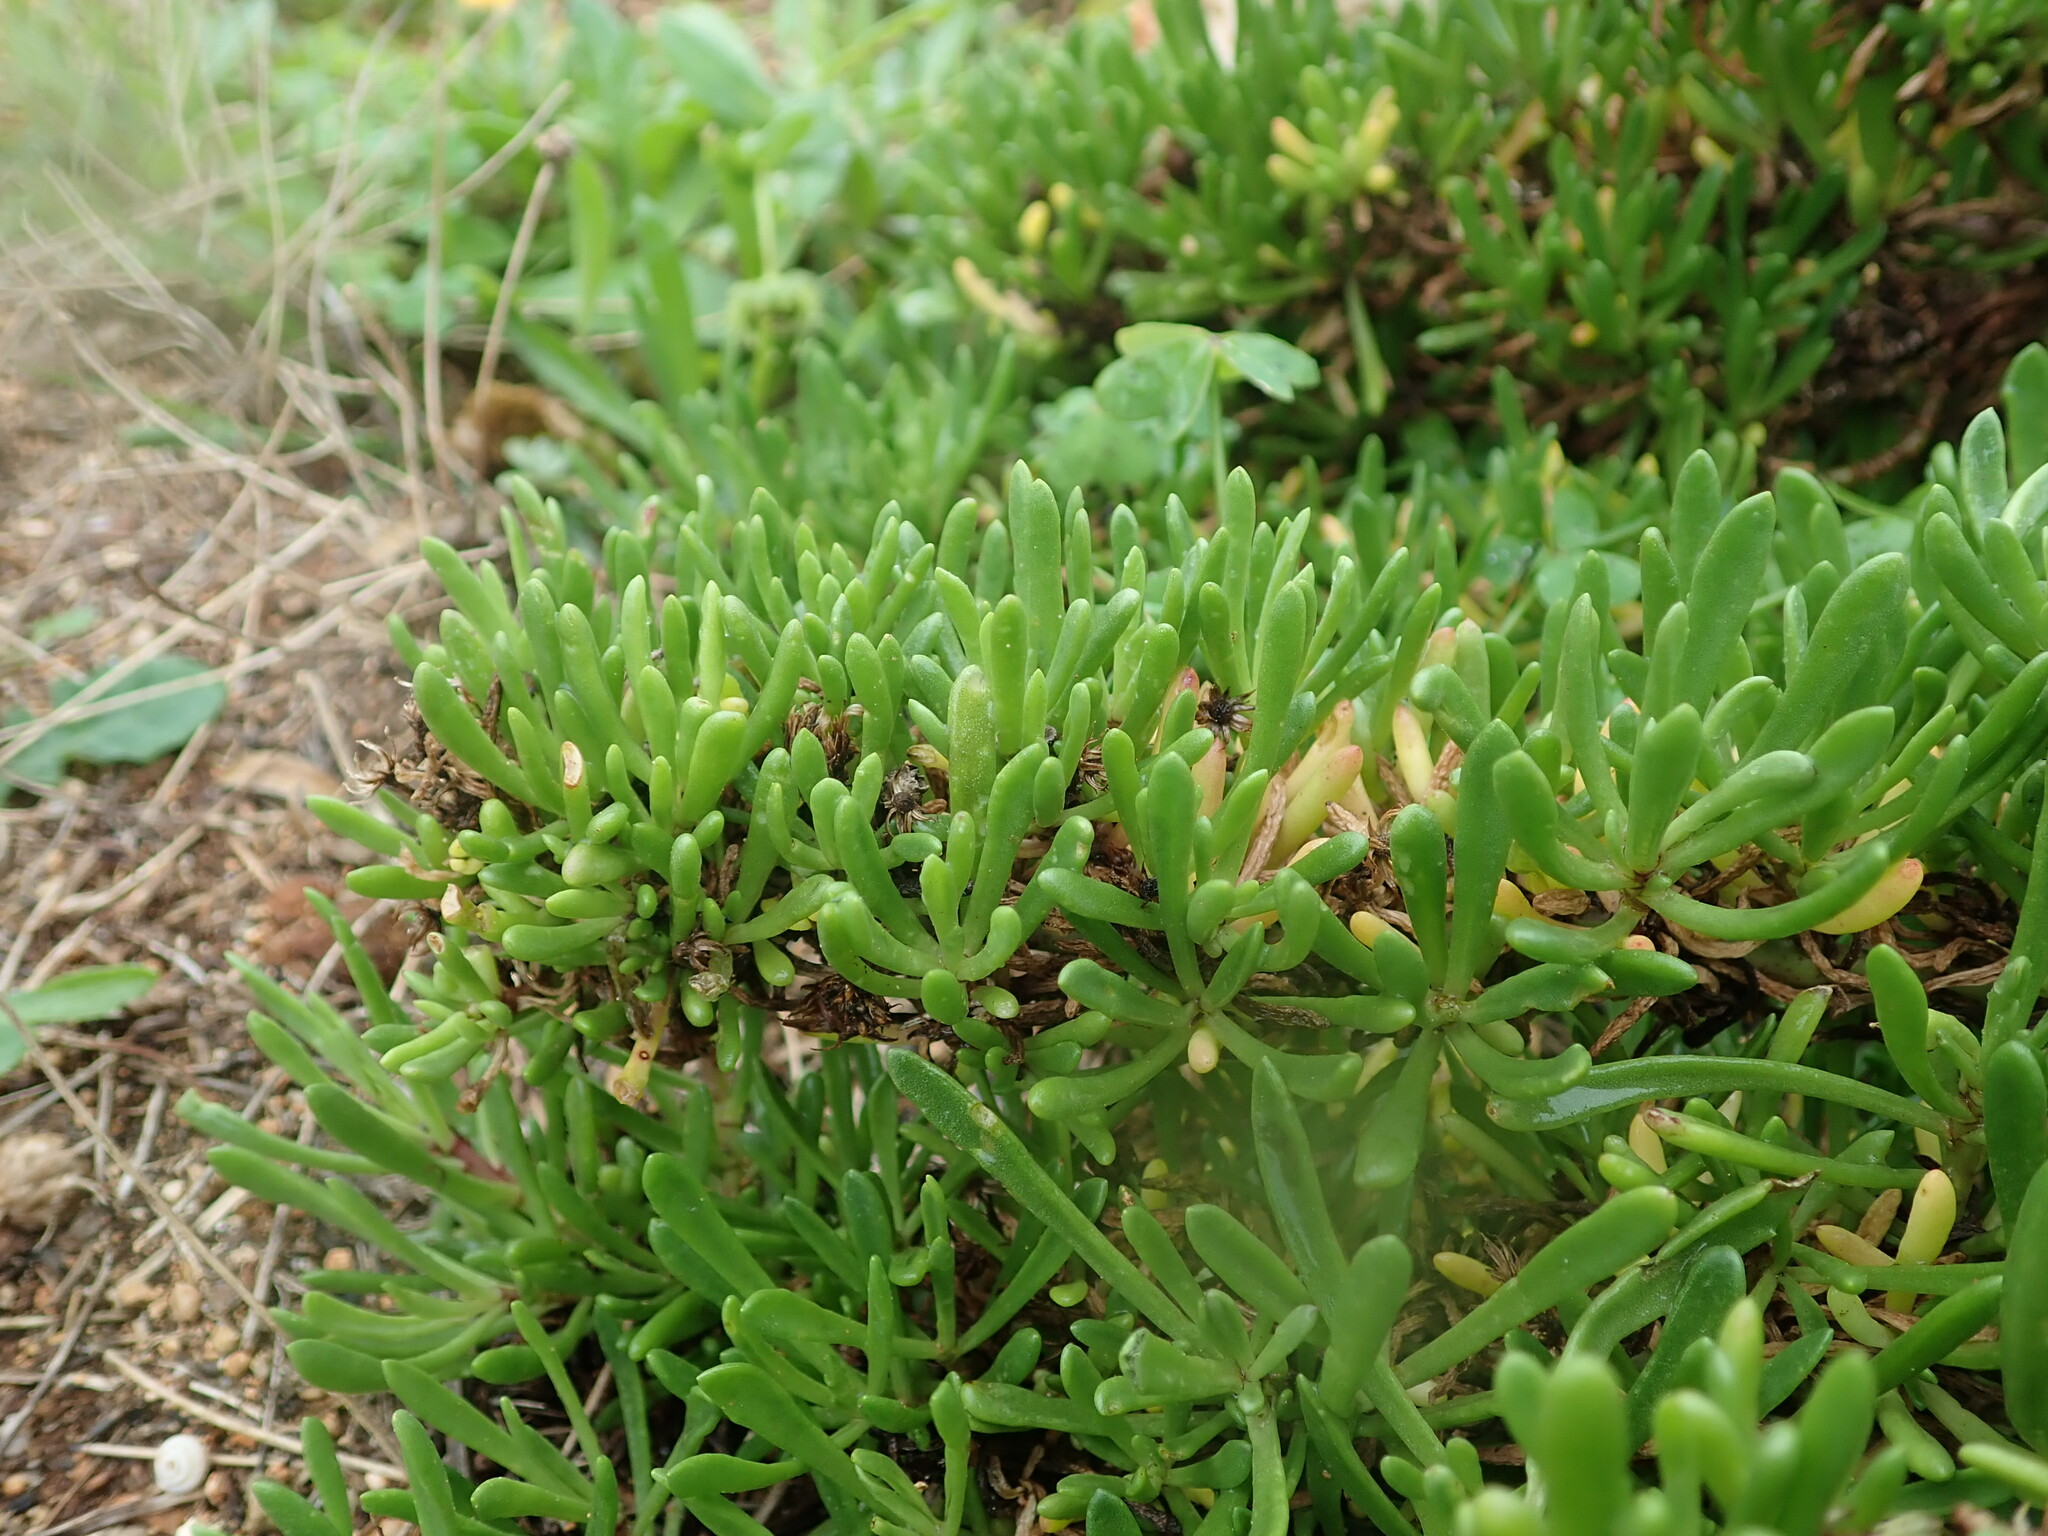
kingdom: Plantae
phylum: Tracheophyta
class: Magnoliopsida
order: Asterales
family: Asteraceae
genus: Limbarda
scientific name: Limbarda crithmoides
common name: Golden samphire
